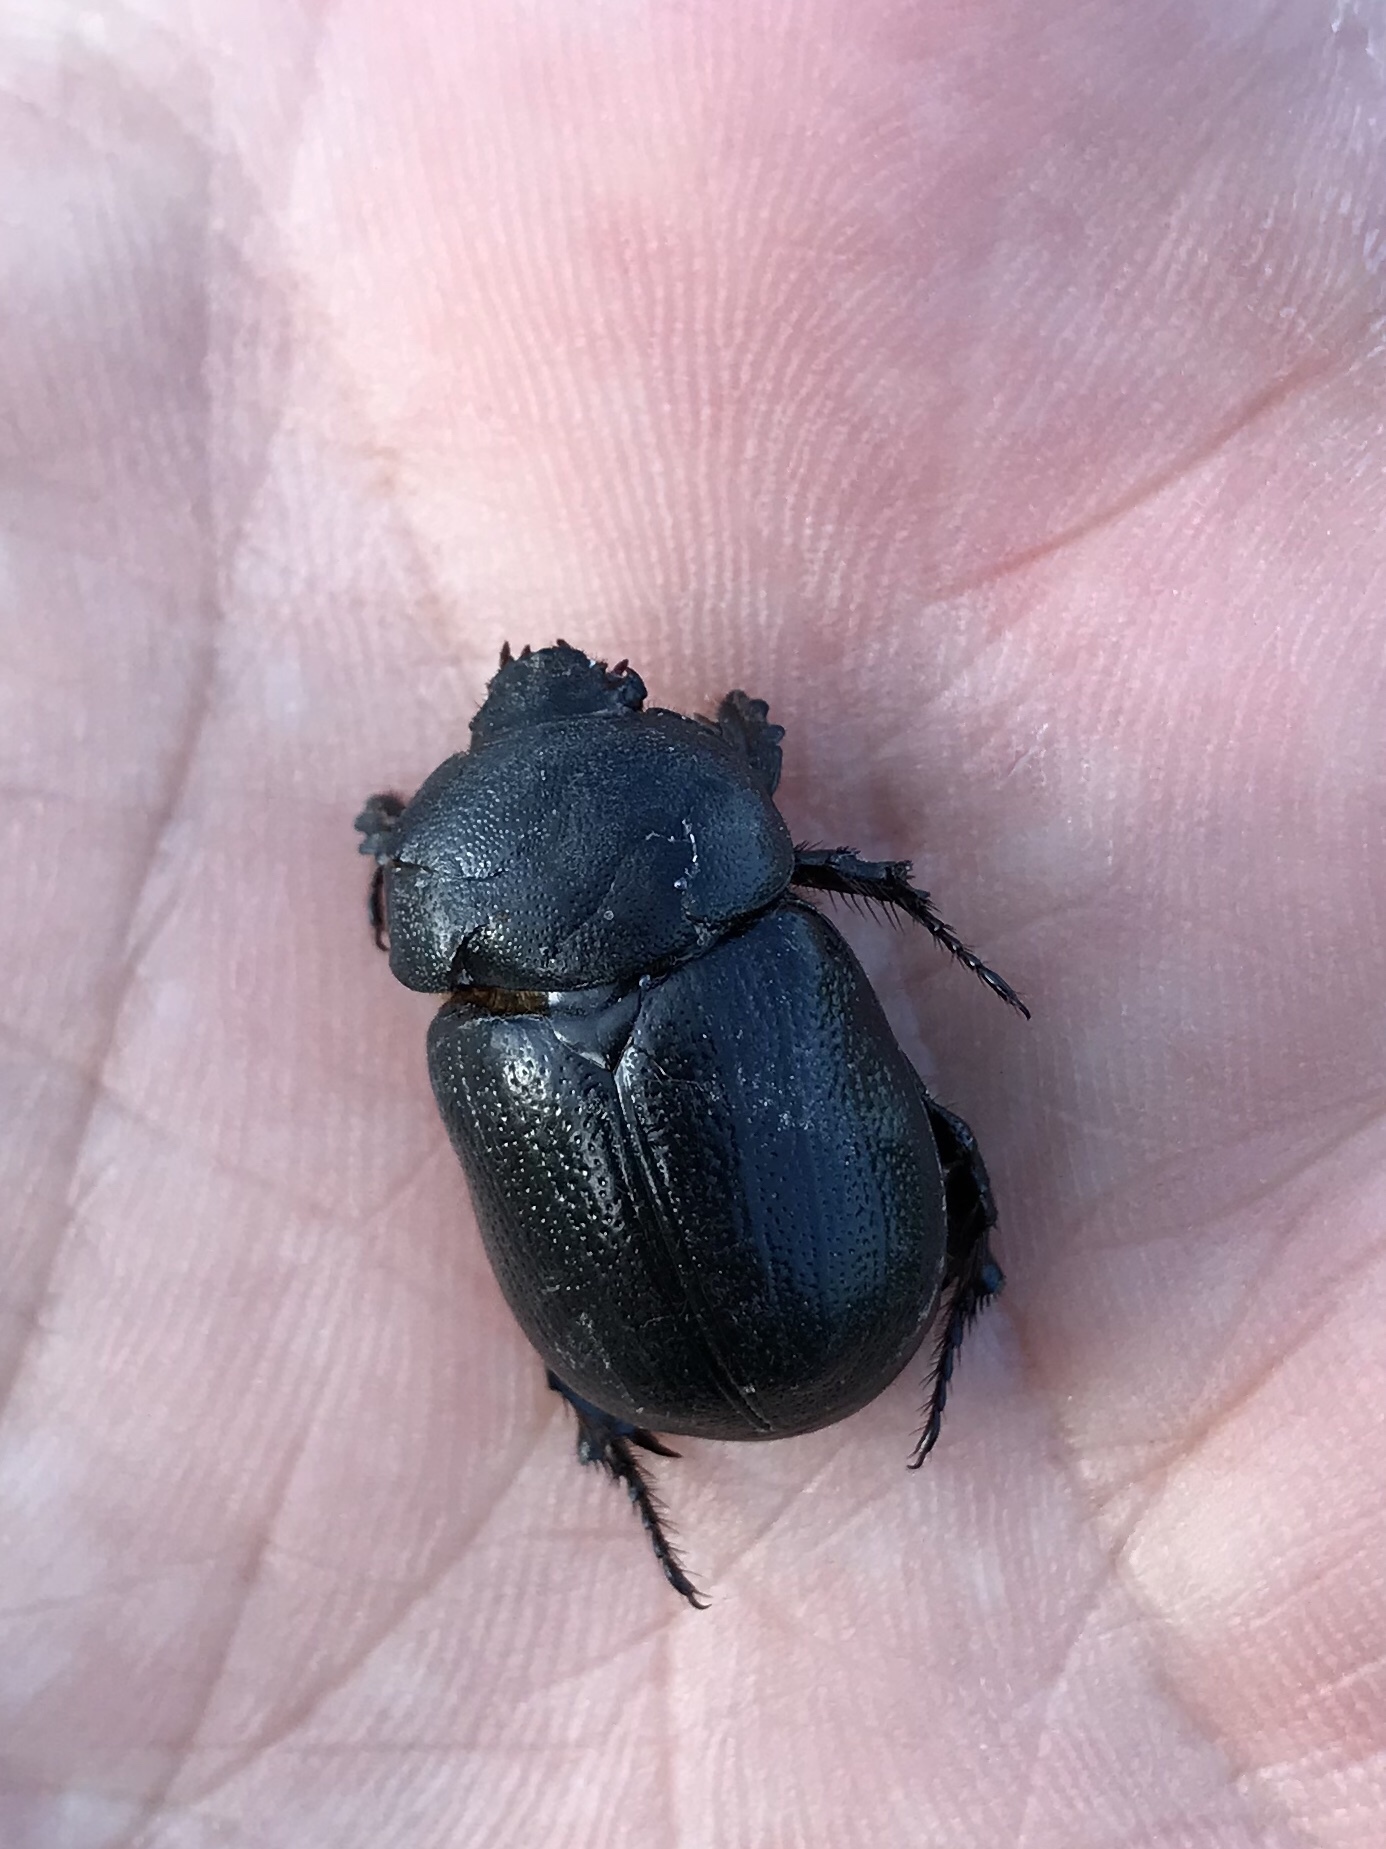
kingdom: Animalia
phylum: Arthropoda
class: Insecta
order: Coleoptera
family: Scarabaeidae
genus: Pentodon
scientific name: Pentodon bidens
